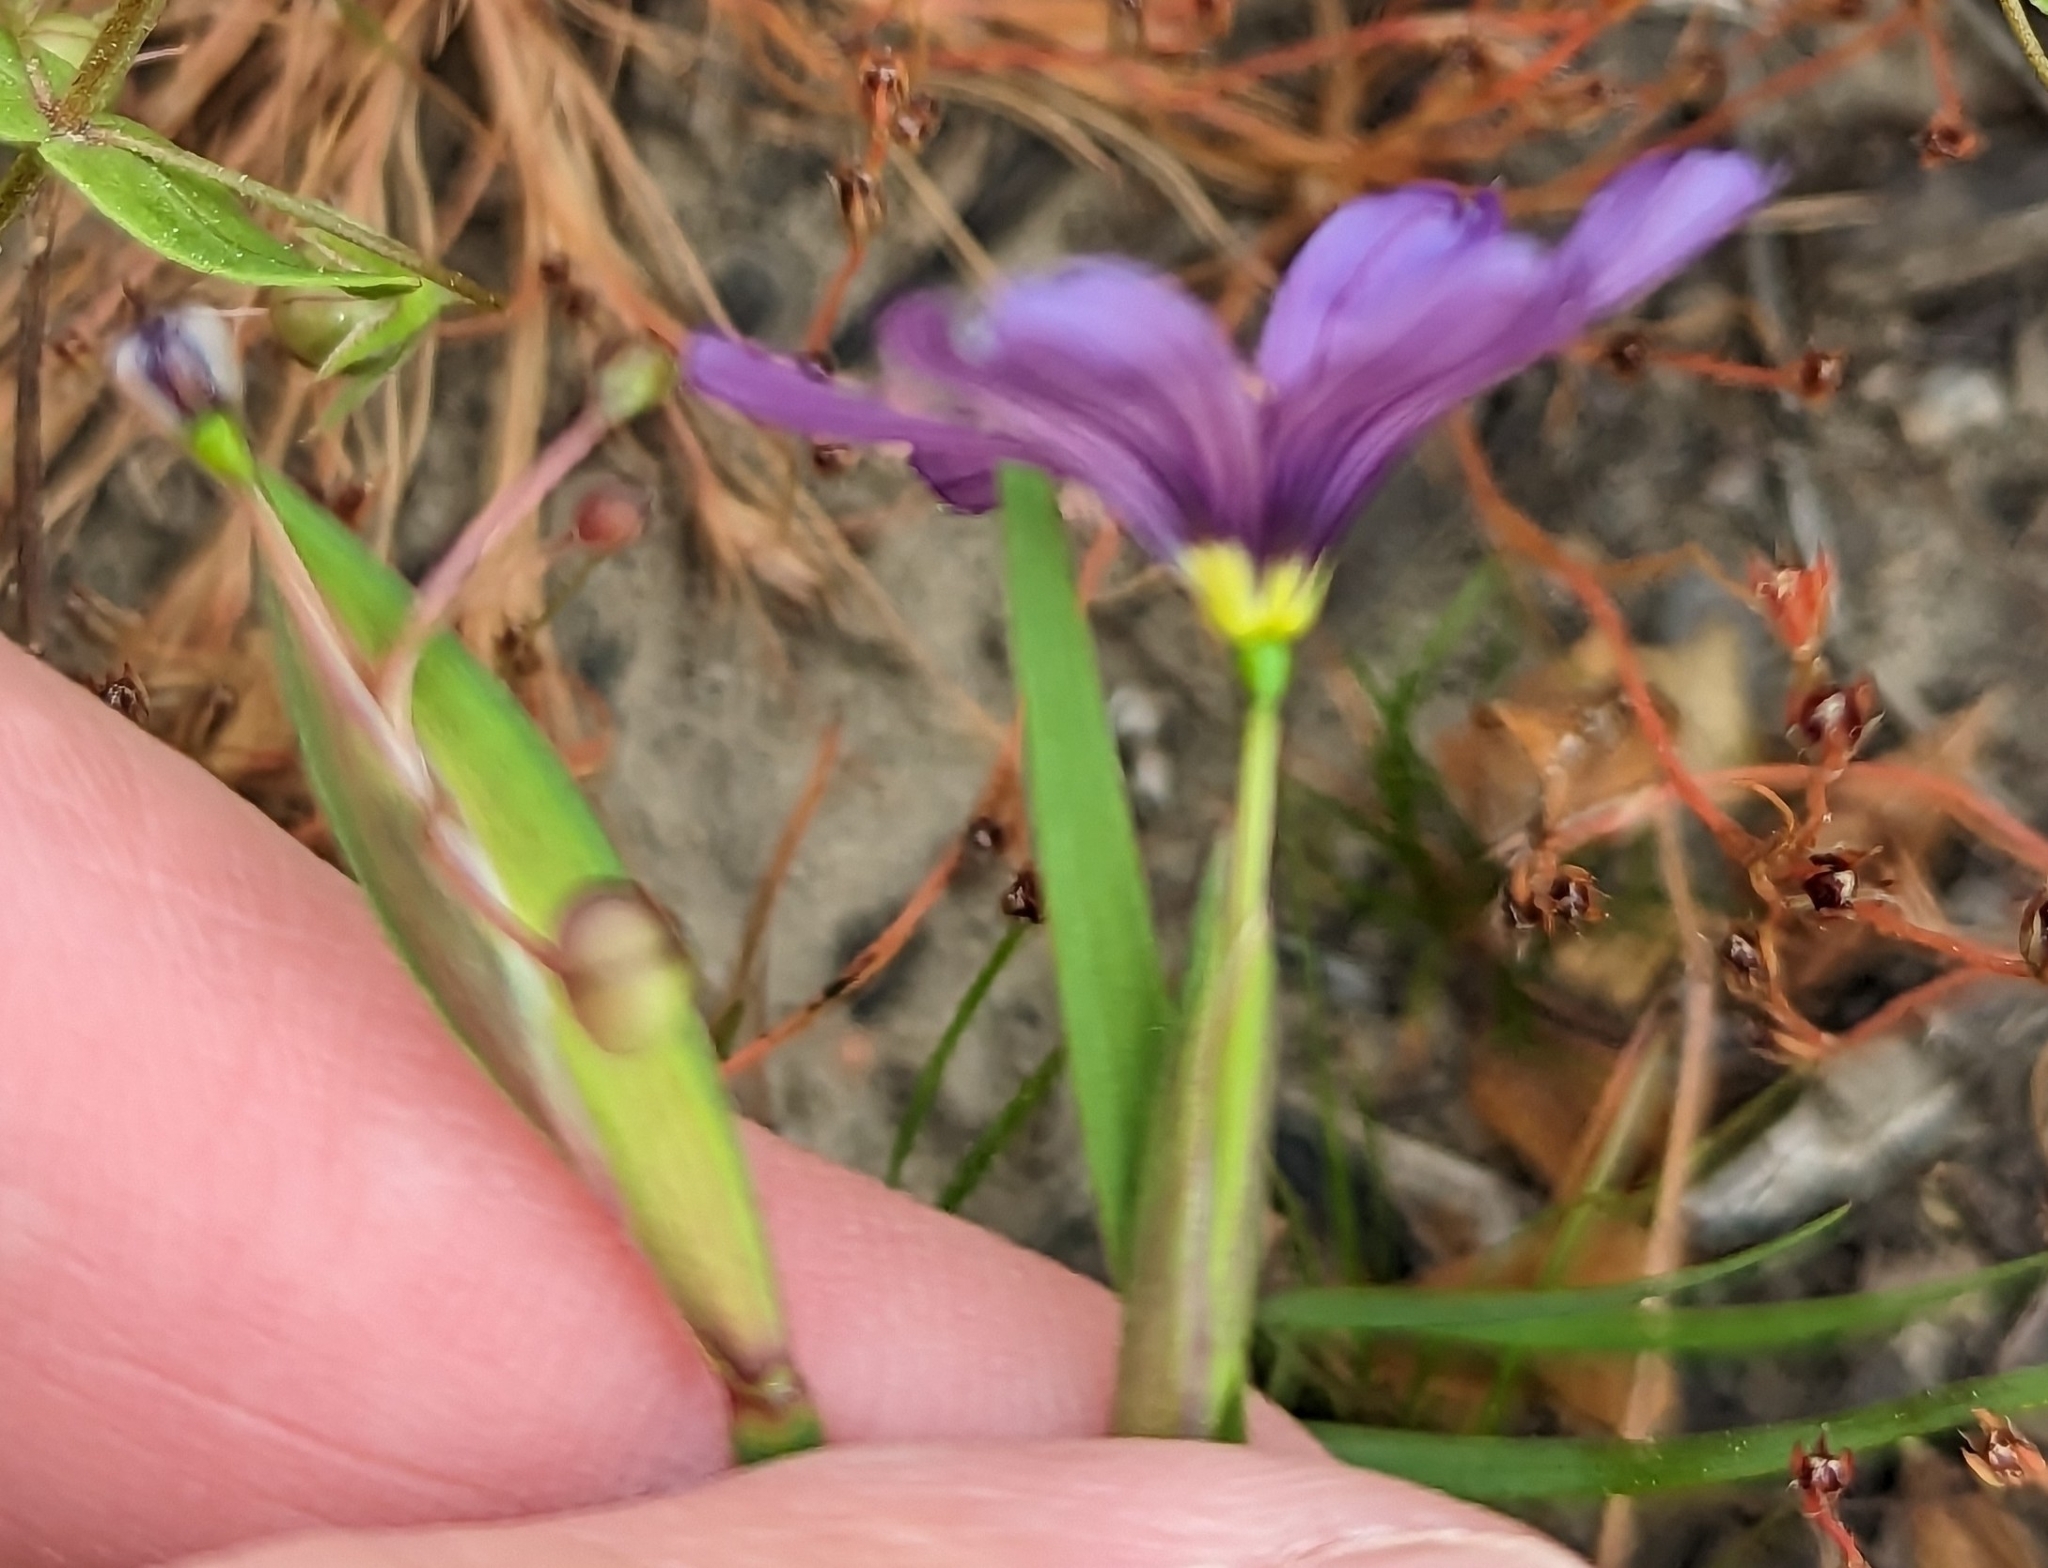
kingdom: Plantae
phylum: Tracheophyta
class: Liliopsida
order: Asparagales
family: Iridaceae
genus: Sisyrinchium
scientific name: Sisyrinchium bellum
